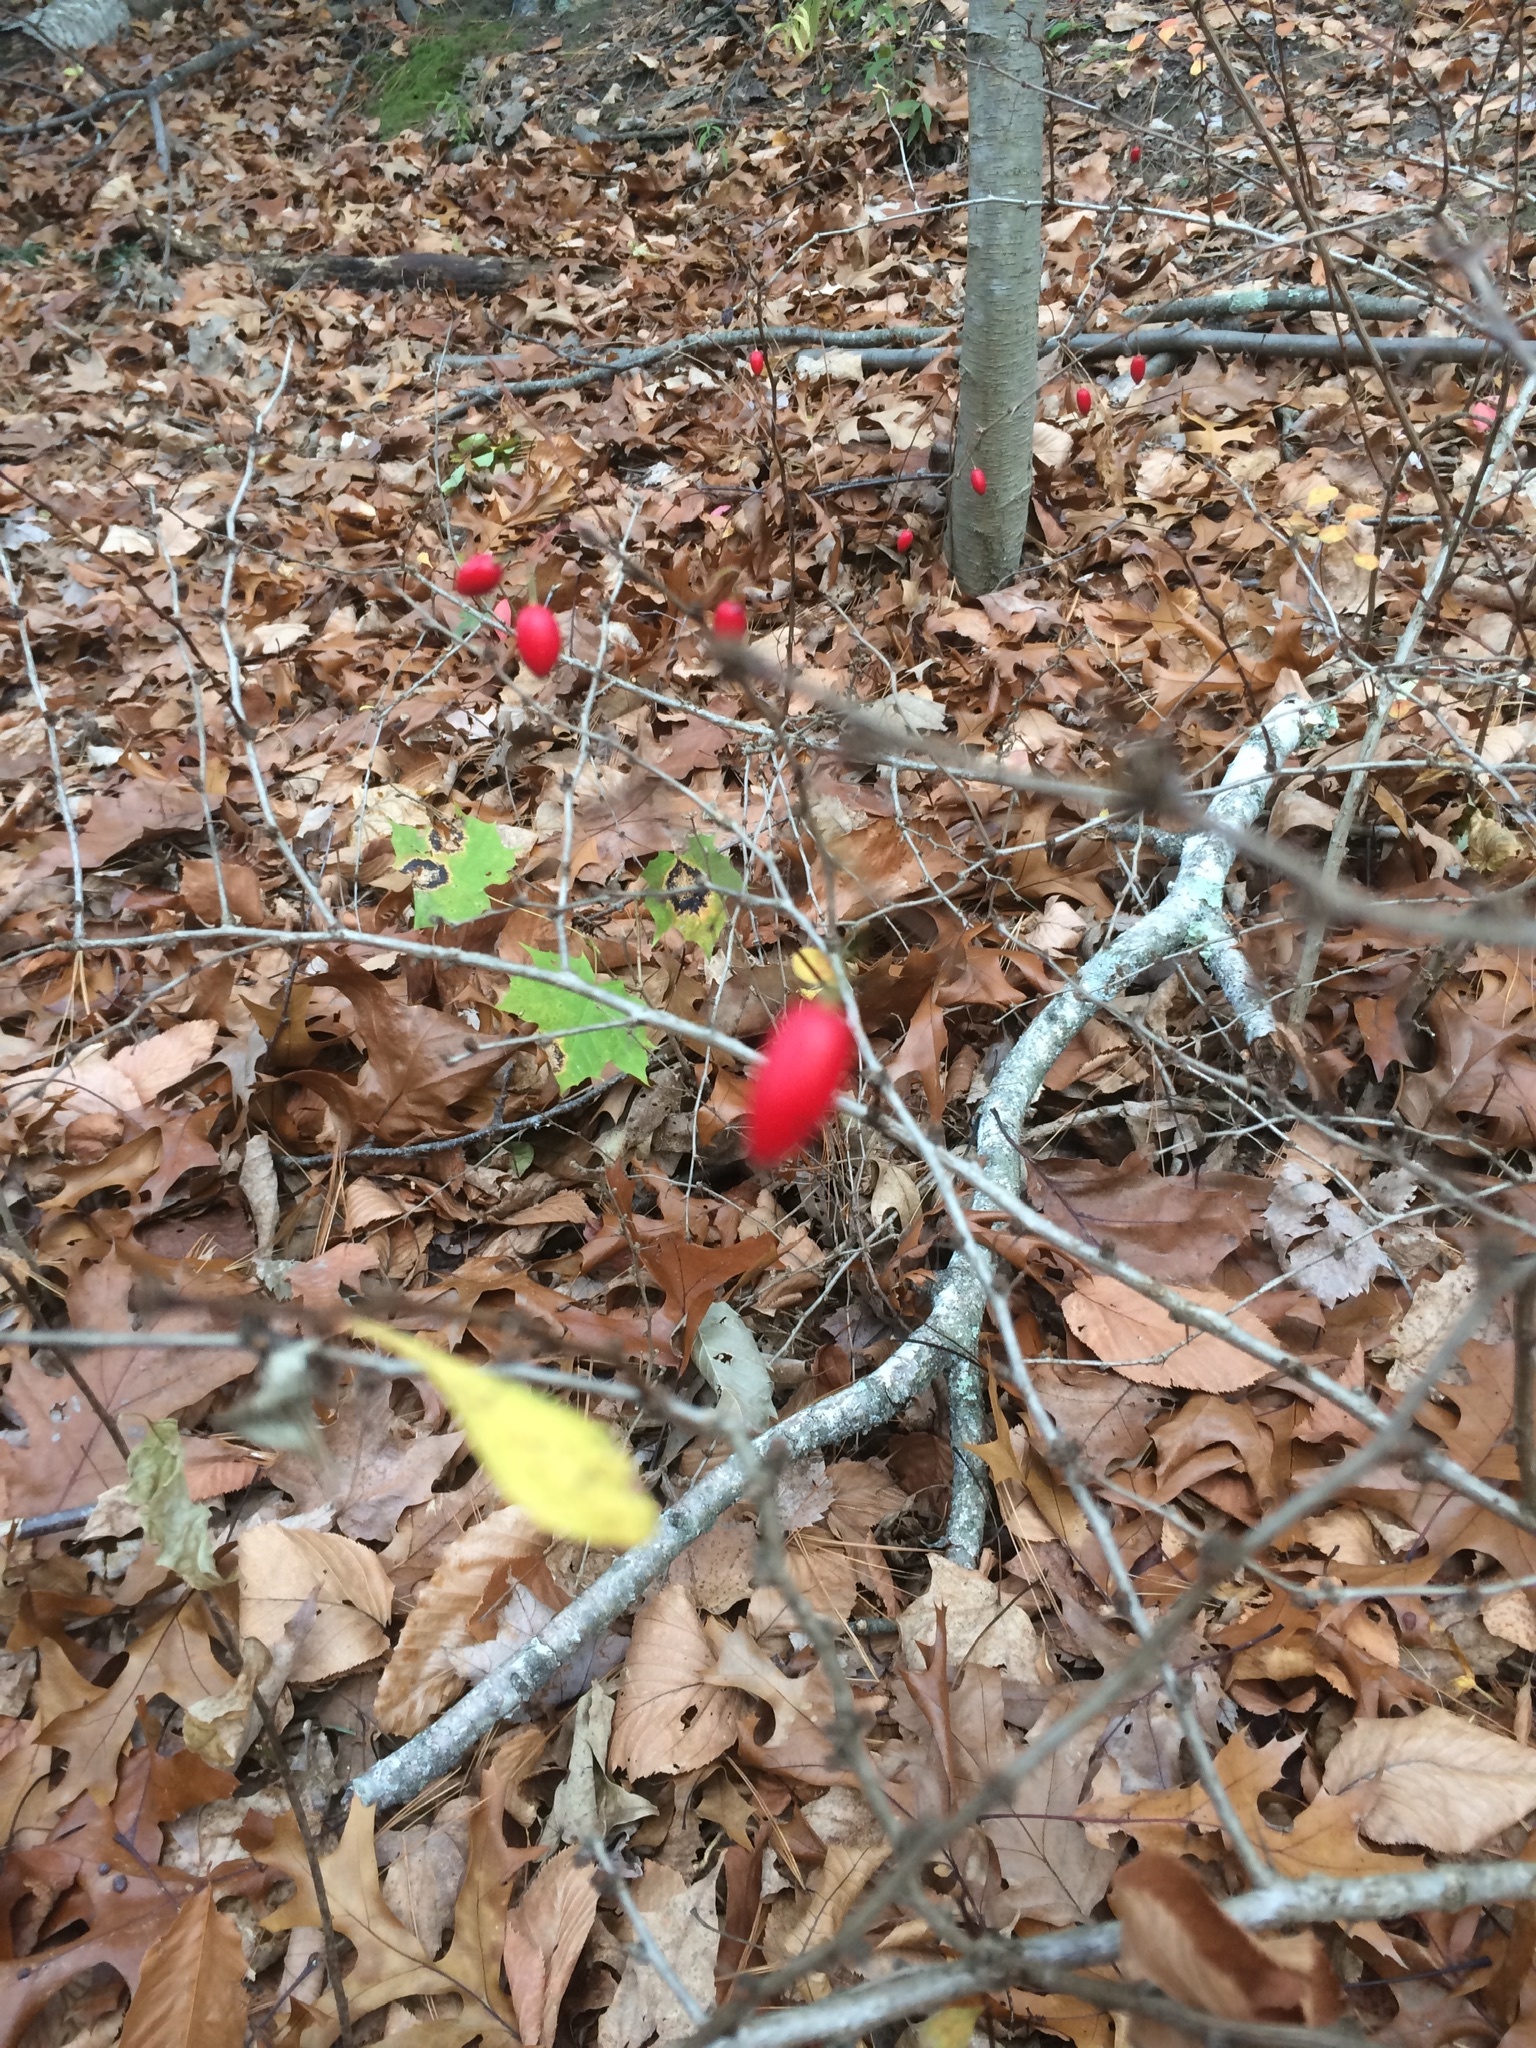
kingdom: Plantae
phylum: Tracheophyta
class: Magnoliopsida
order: Ranunculales
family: Berberidaceae
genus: Berberis
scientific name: Berberis thunbergii
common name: Japanese barberry
